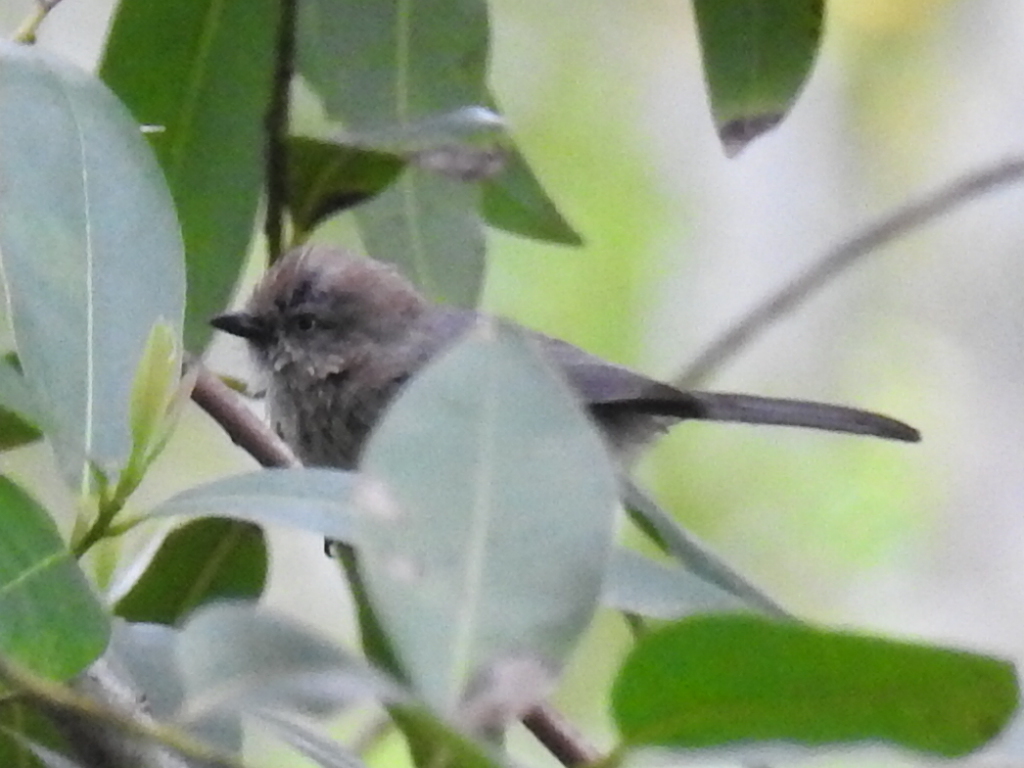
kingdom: Animalia
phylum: Chordata
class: Aves
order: Passeriformes
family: Aegithalidae
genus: Psaltriparus
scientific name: Psaltriparus minimus
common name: American bushtit
